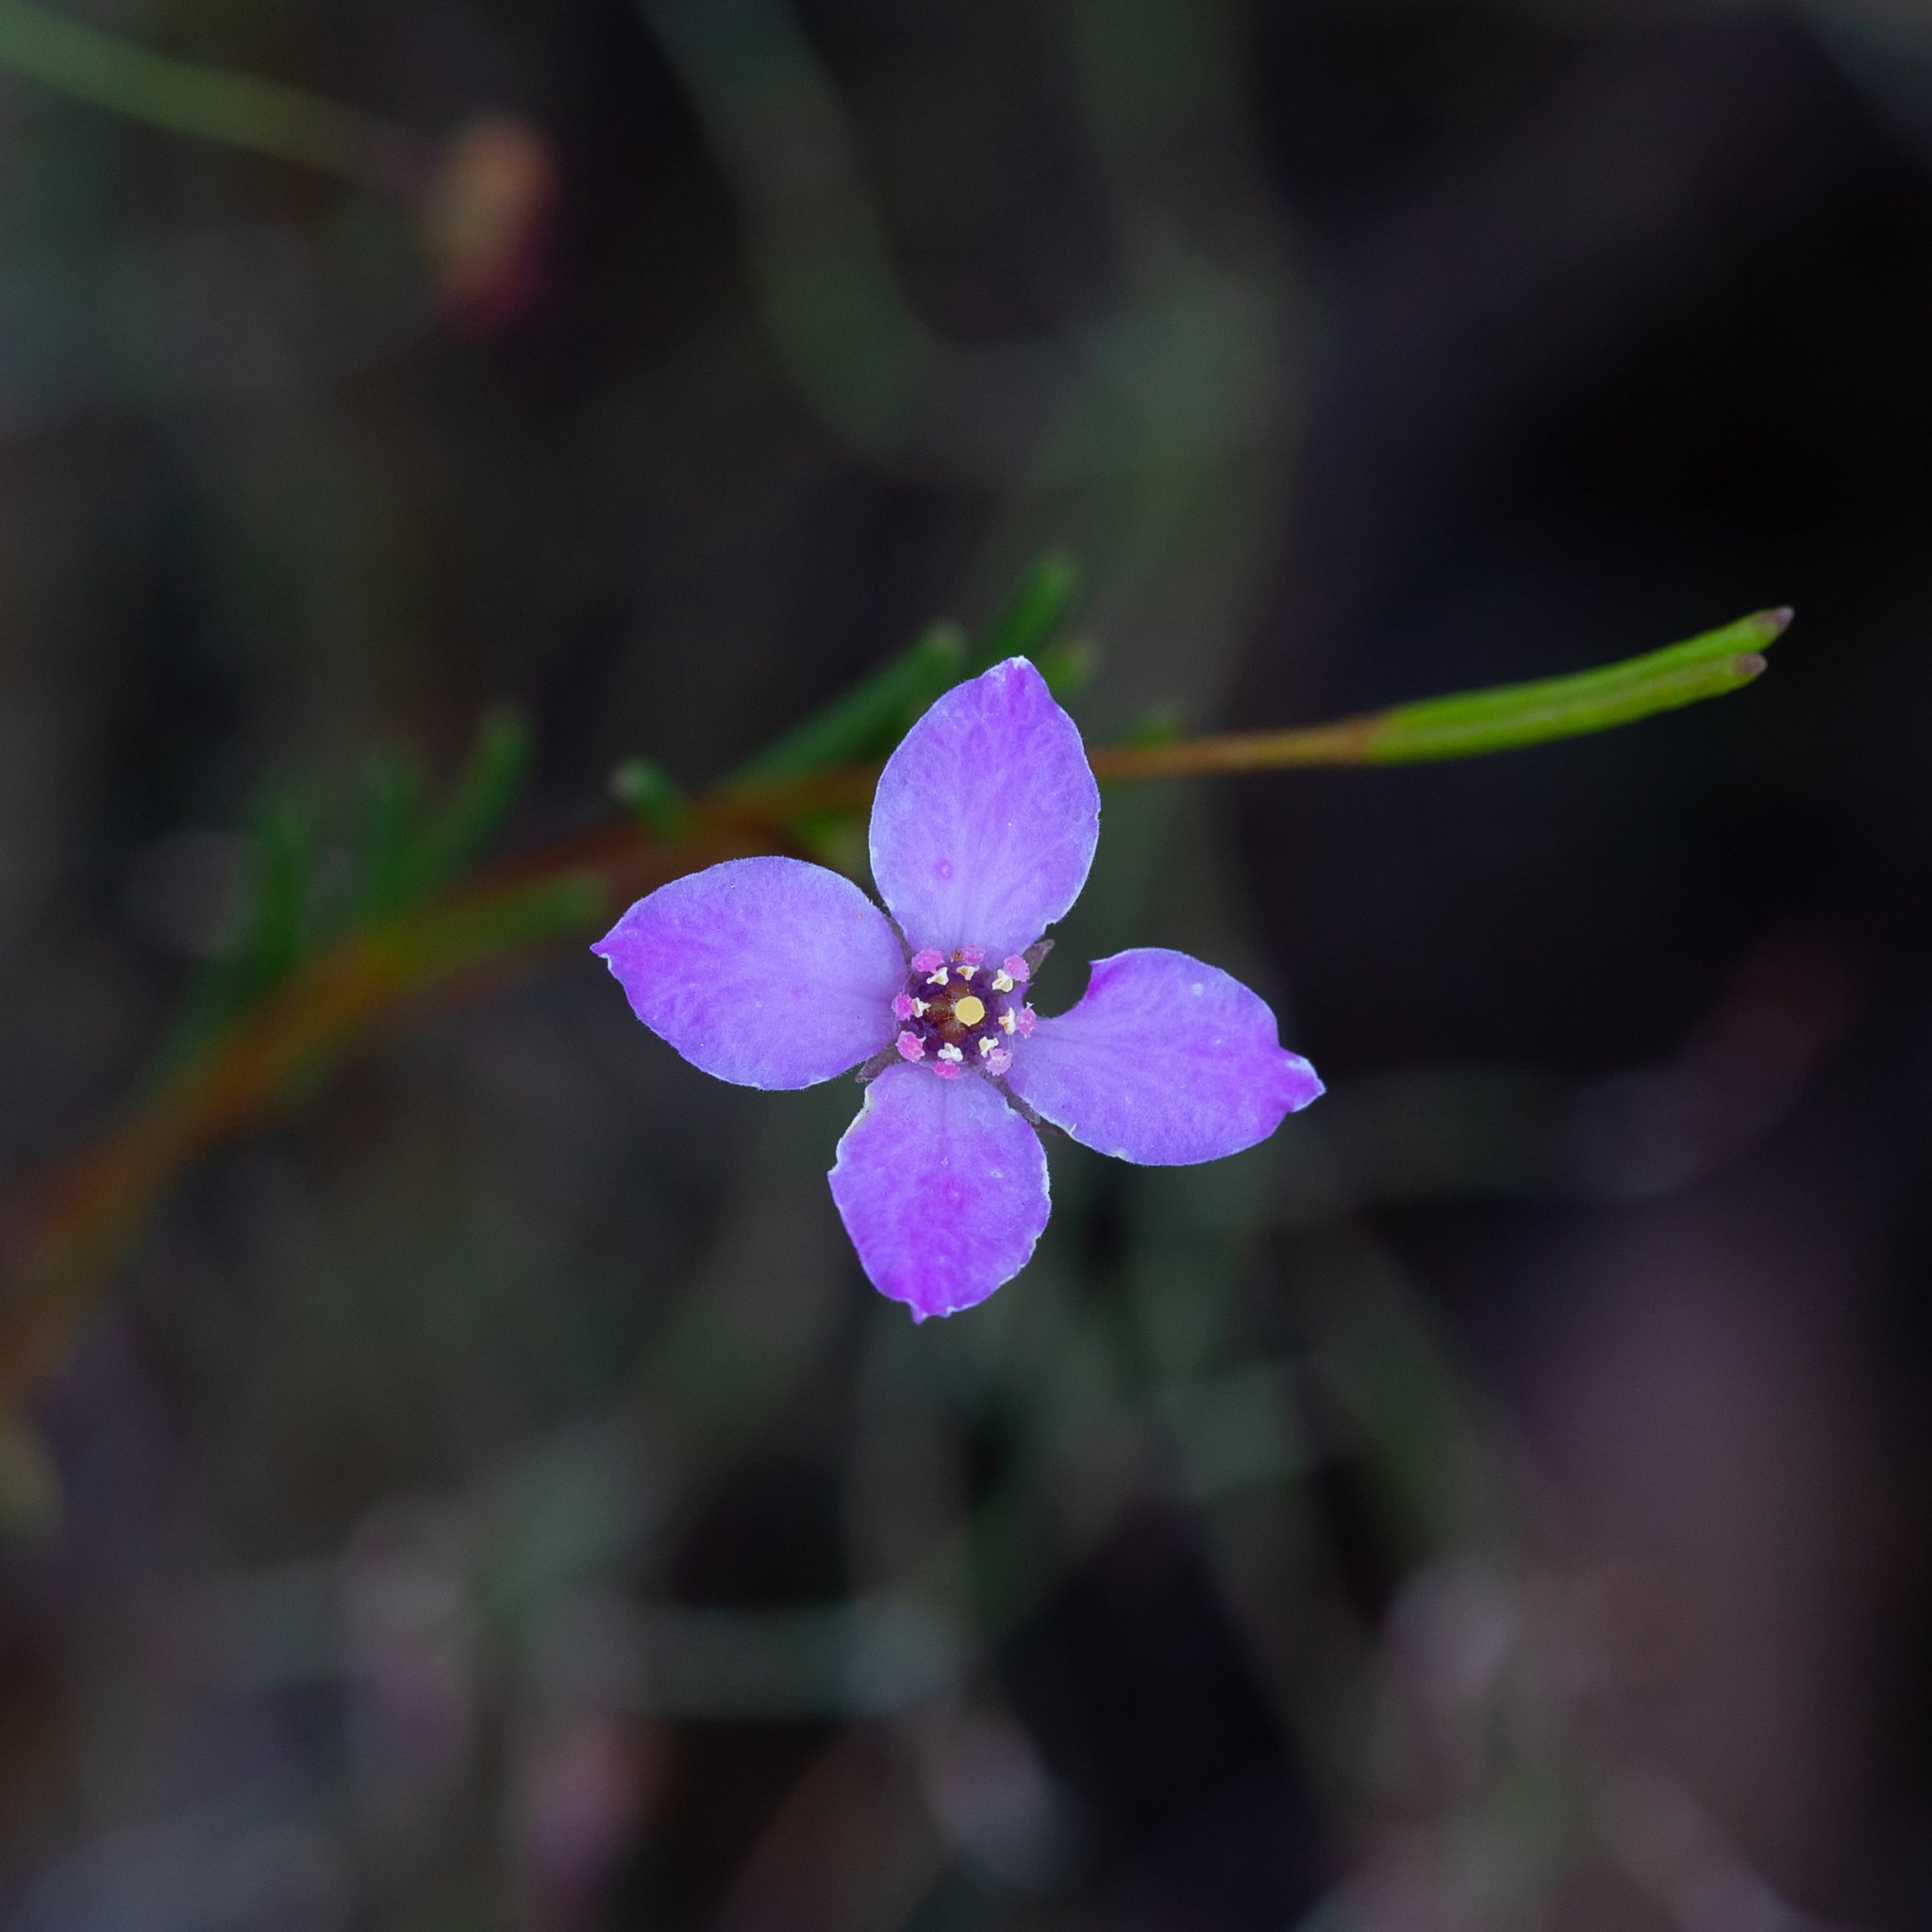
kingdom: Plantae
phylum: Tracheophyta
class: Magnoliopsida
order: Sapindales
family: Rutaceae
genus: Boronia
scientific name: Boronia filifolia
